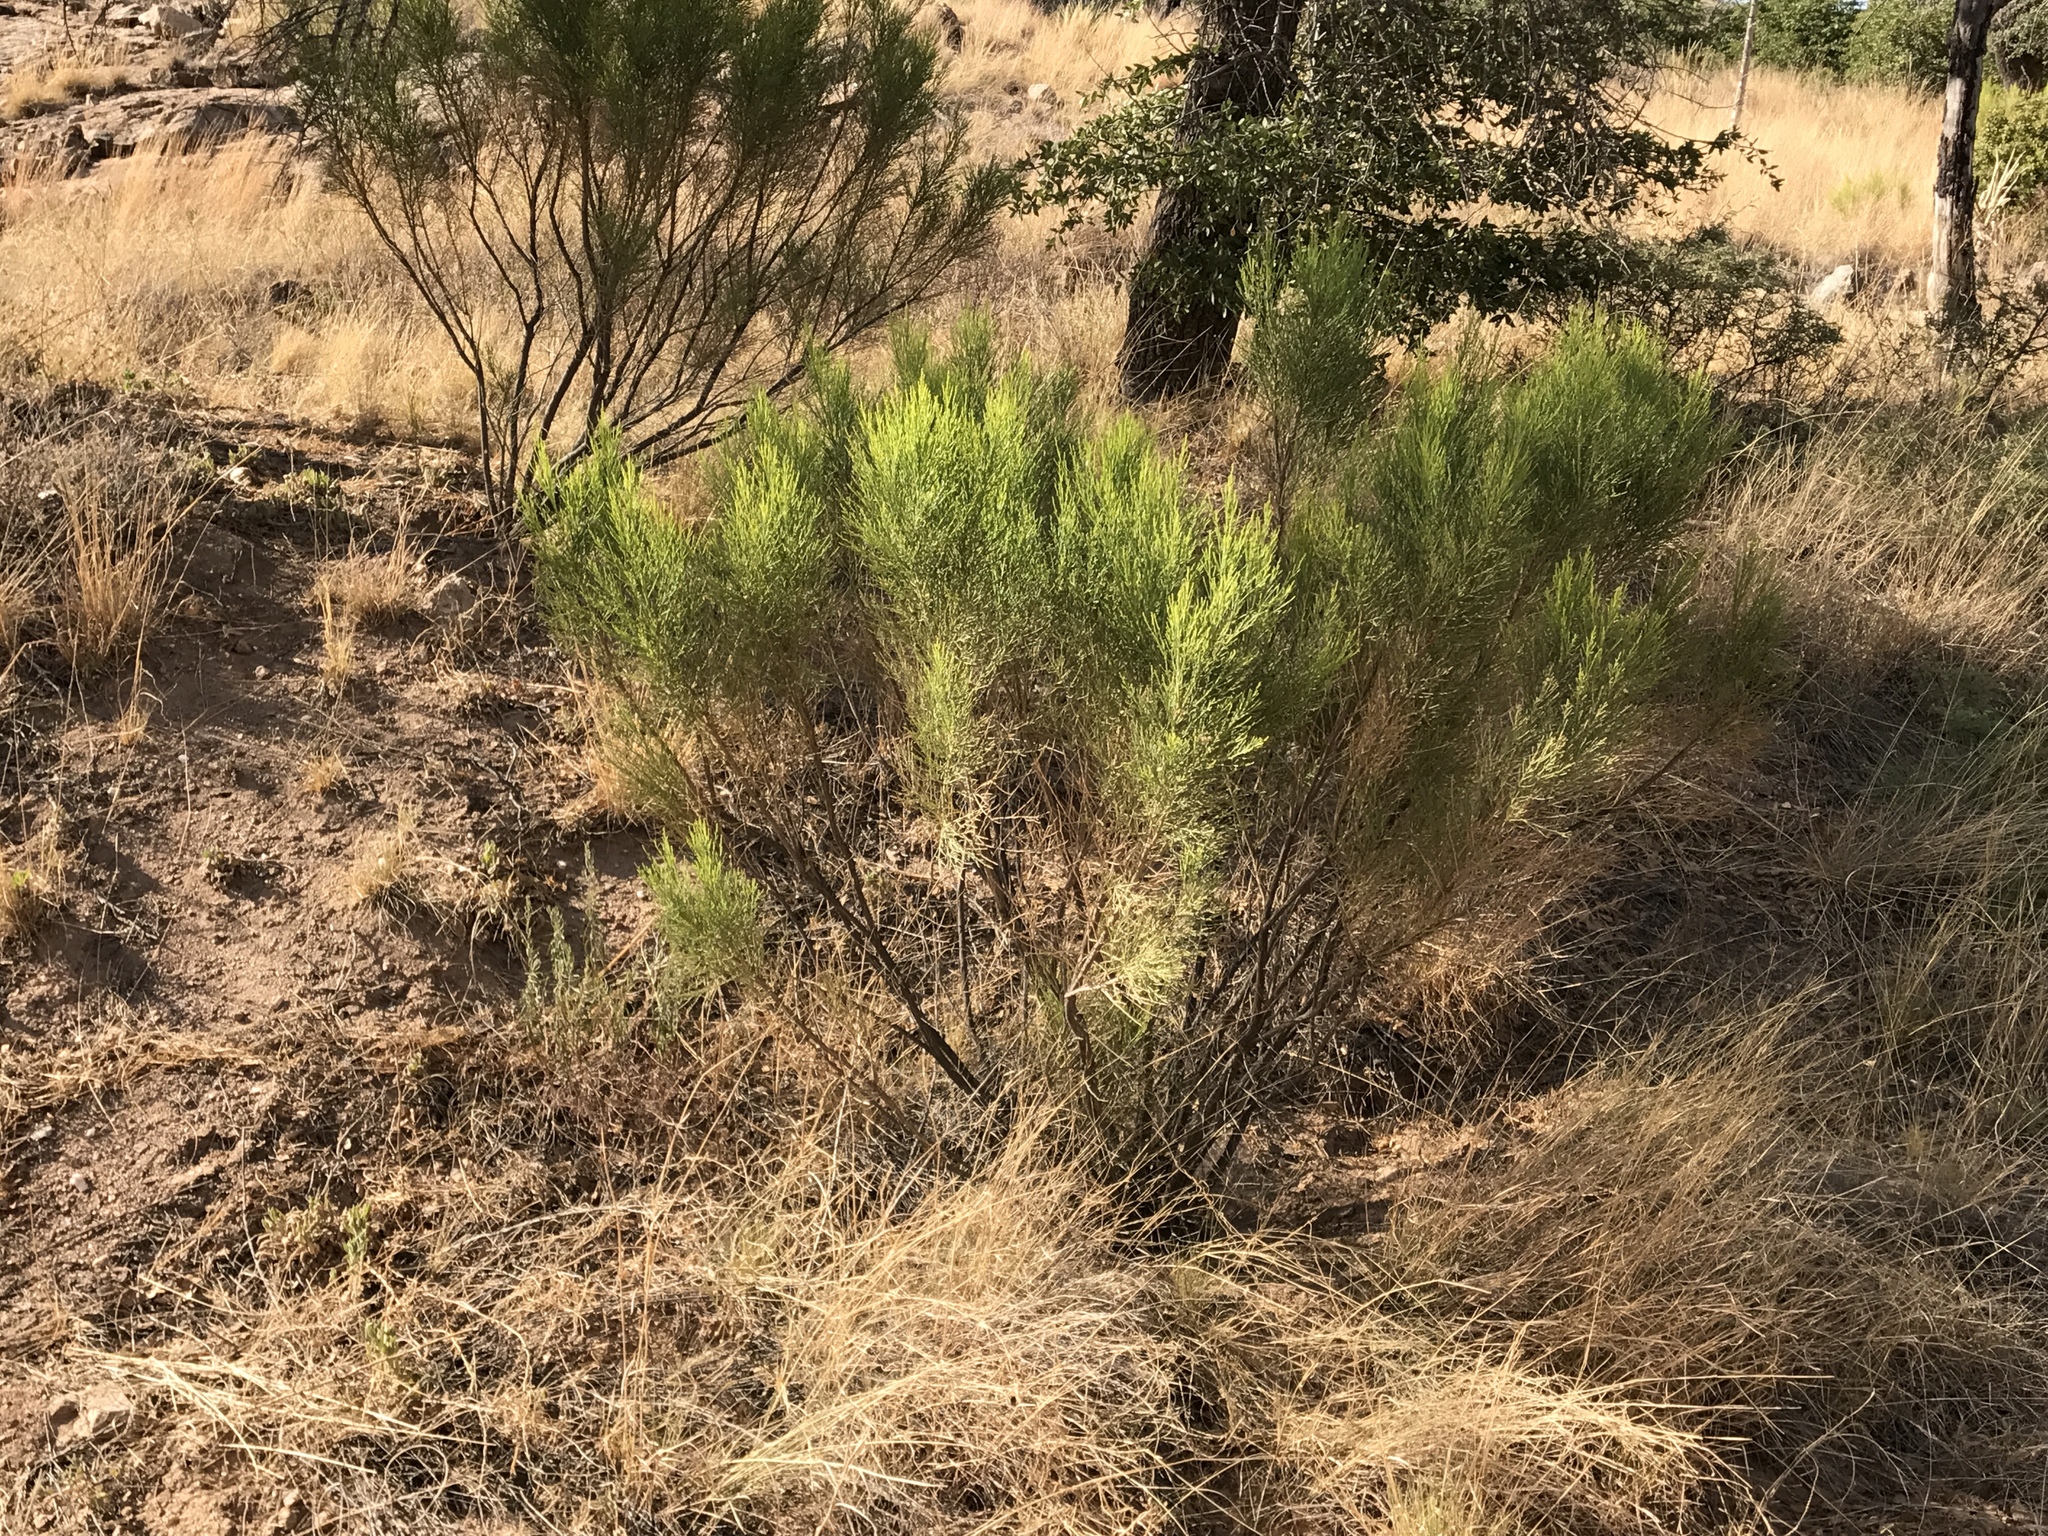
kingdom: Plantae
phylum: Tracheophyta
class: Magnoliopsida
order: Asterales
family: Asteraceae
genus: Baccharis
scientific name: Baccharis sarothroides
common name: Desert-broom
